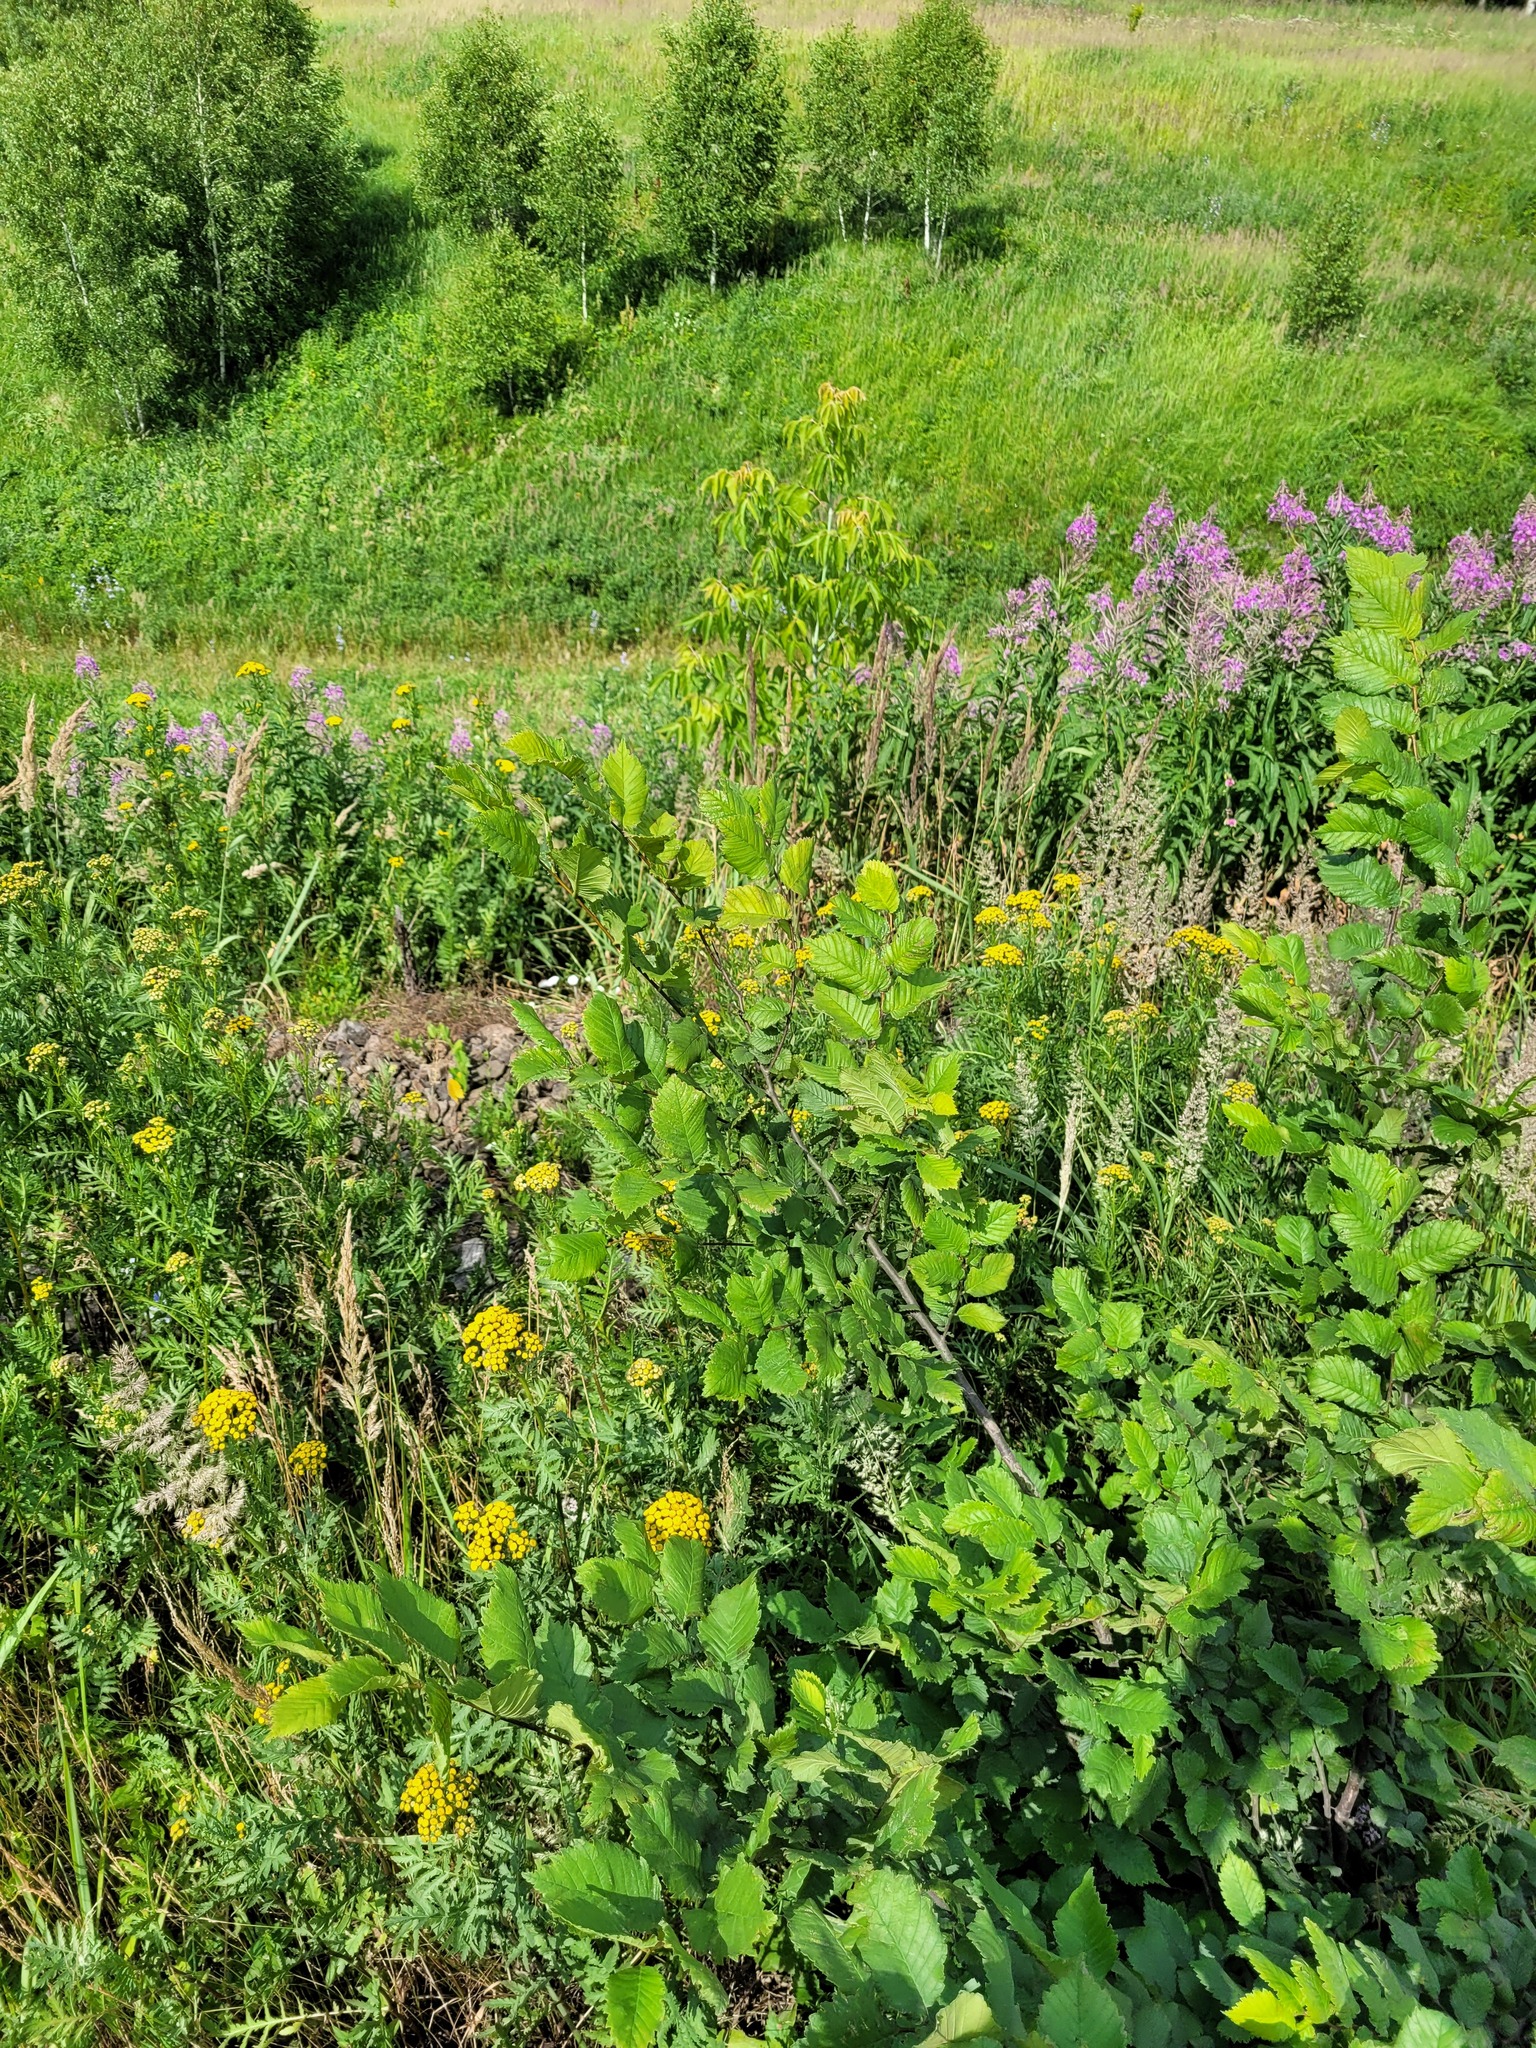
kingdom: Plantae
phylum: Tracheophyta
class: Magnoliopsida
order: Rosales
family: Ulmaceae
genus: Ulmus
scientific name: Ulmus laevis
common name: European white-elm
